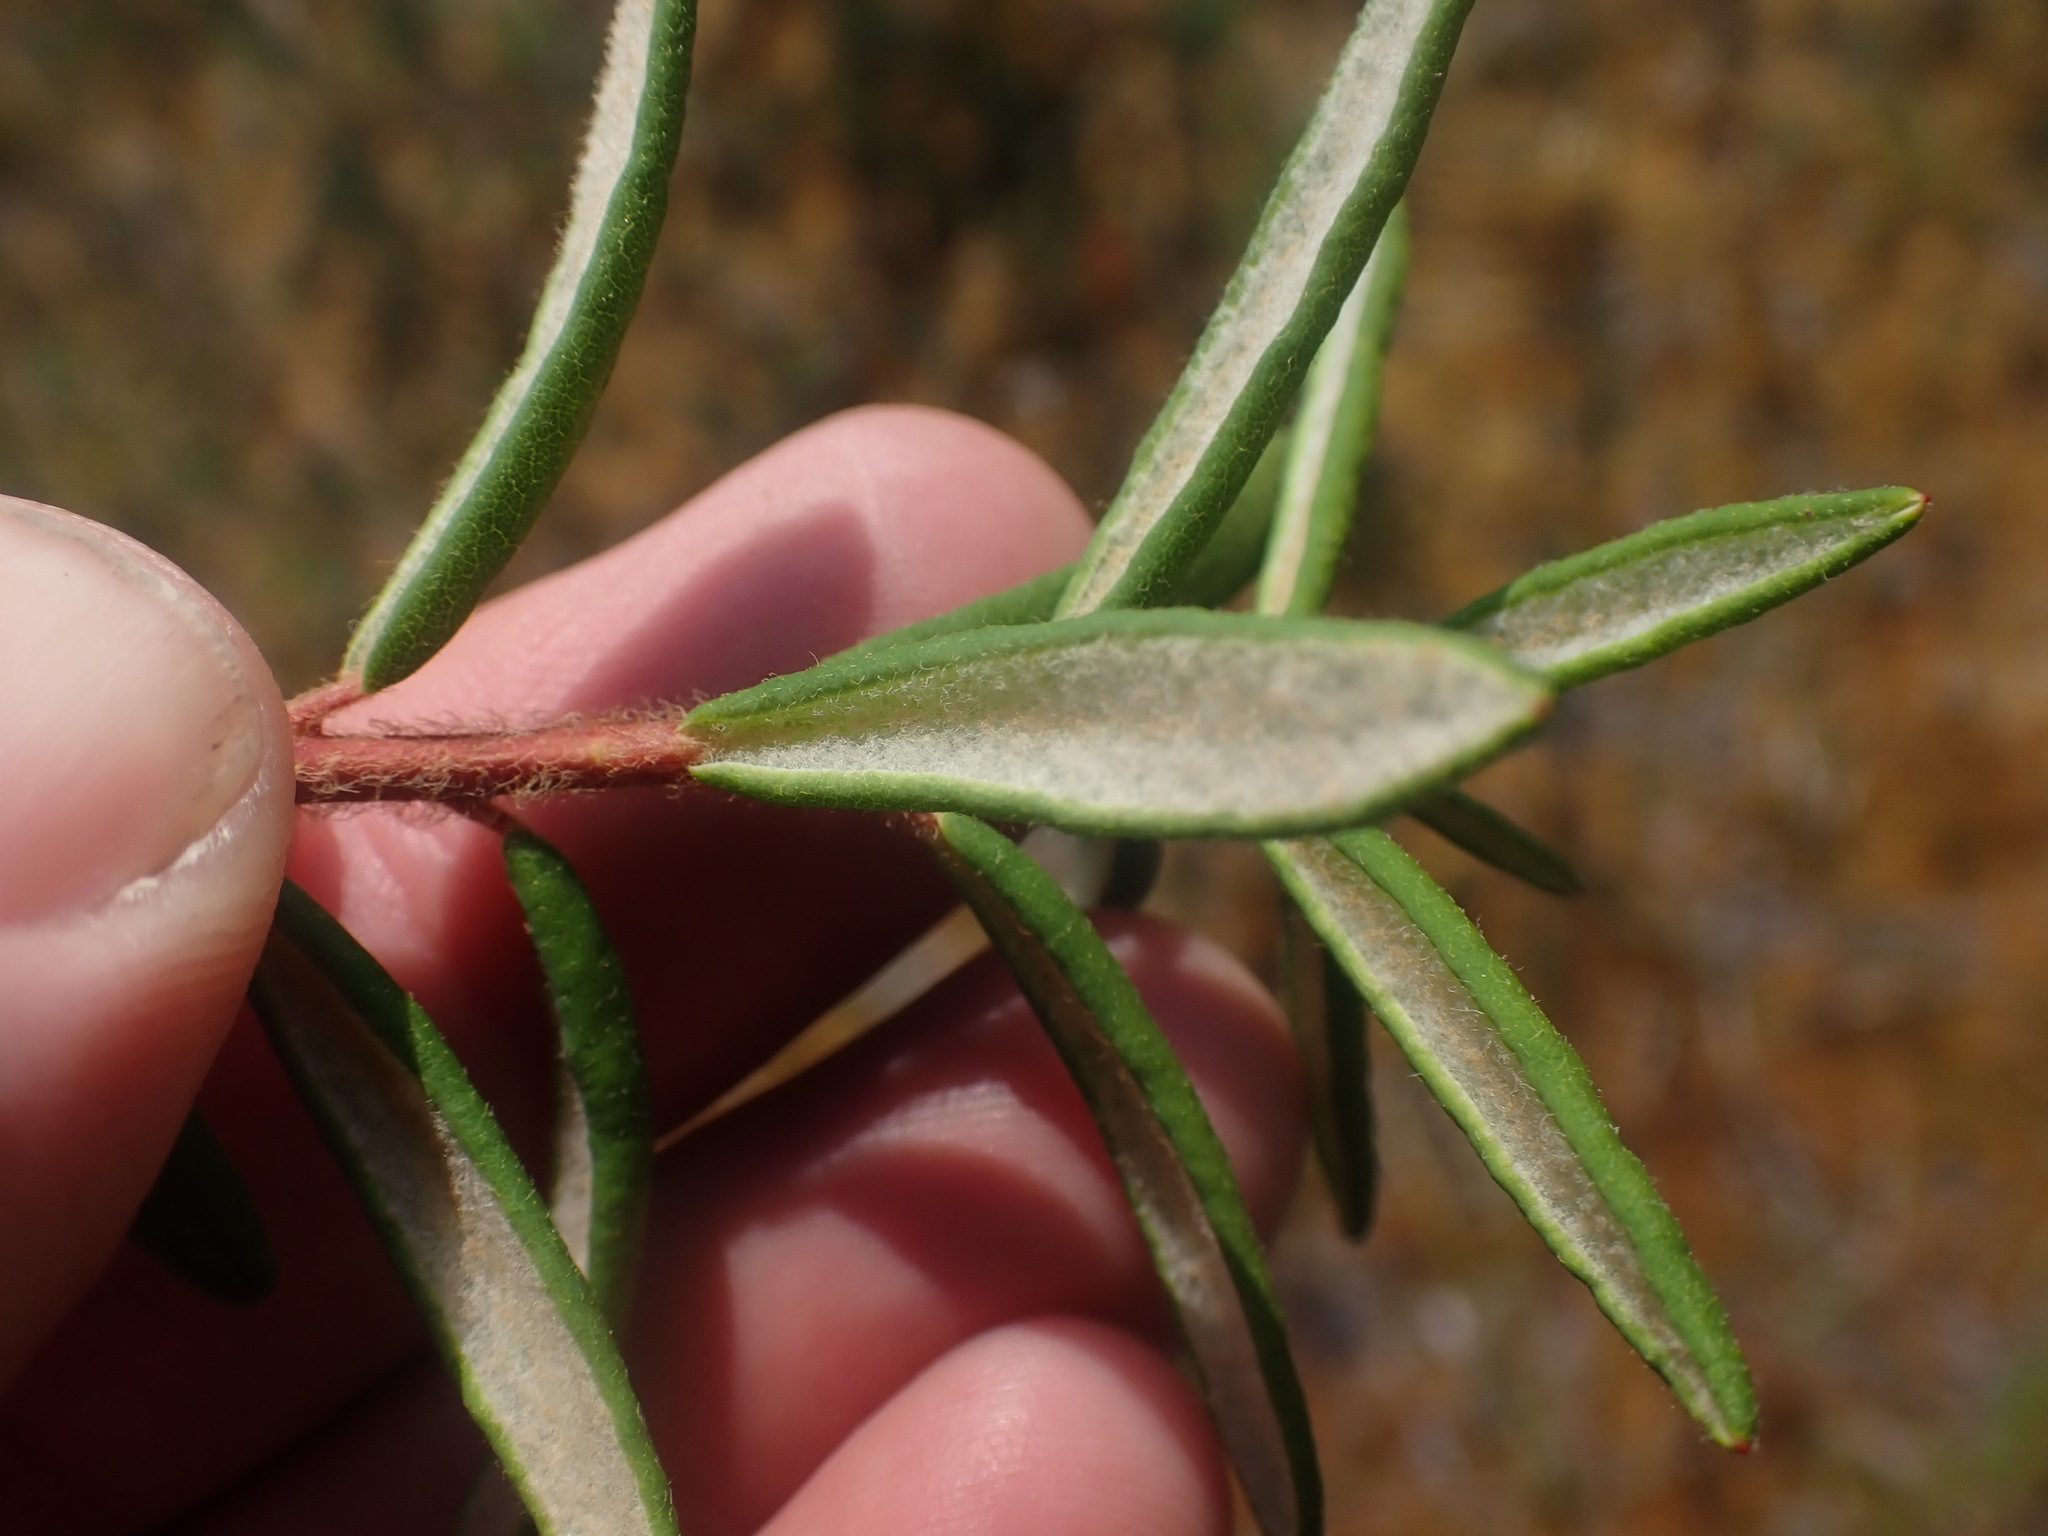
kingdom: Plantae
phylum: Tracheophyta
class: Magnoliopsida
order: Ericales
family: Ericaceae
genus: Rhododendron
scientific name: Rhododendron groenlandicum
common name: Bog labrador tea
